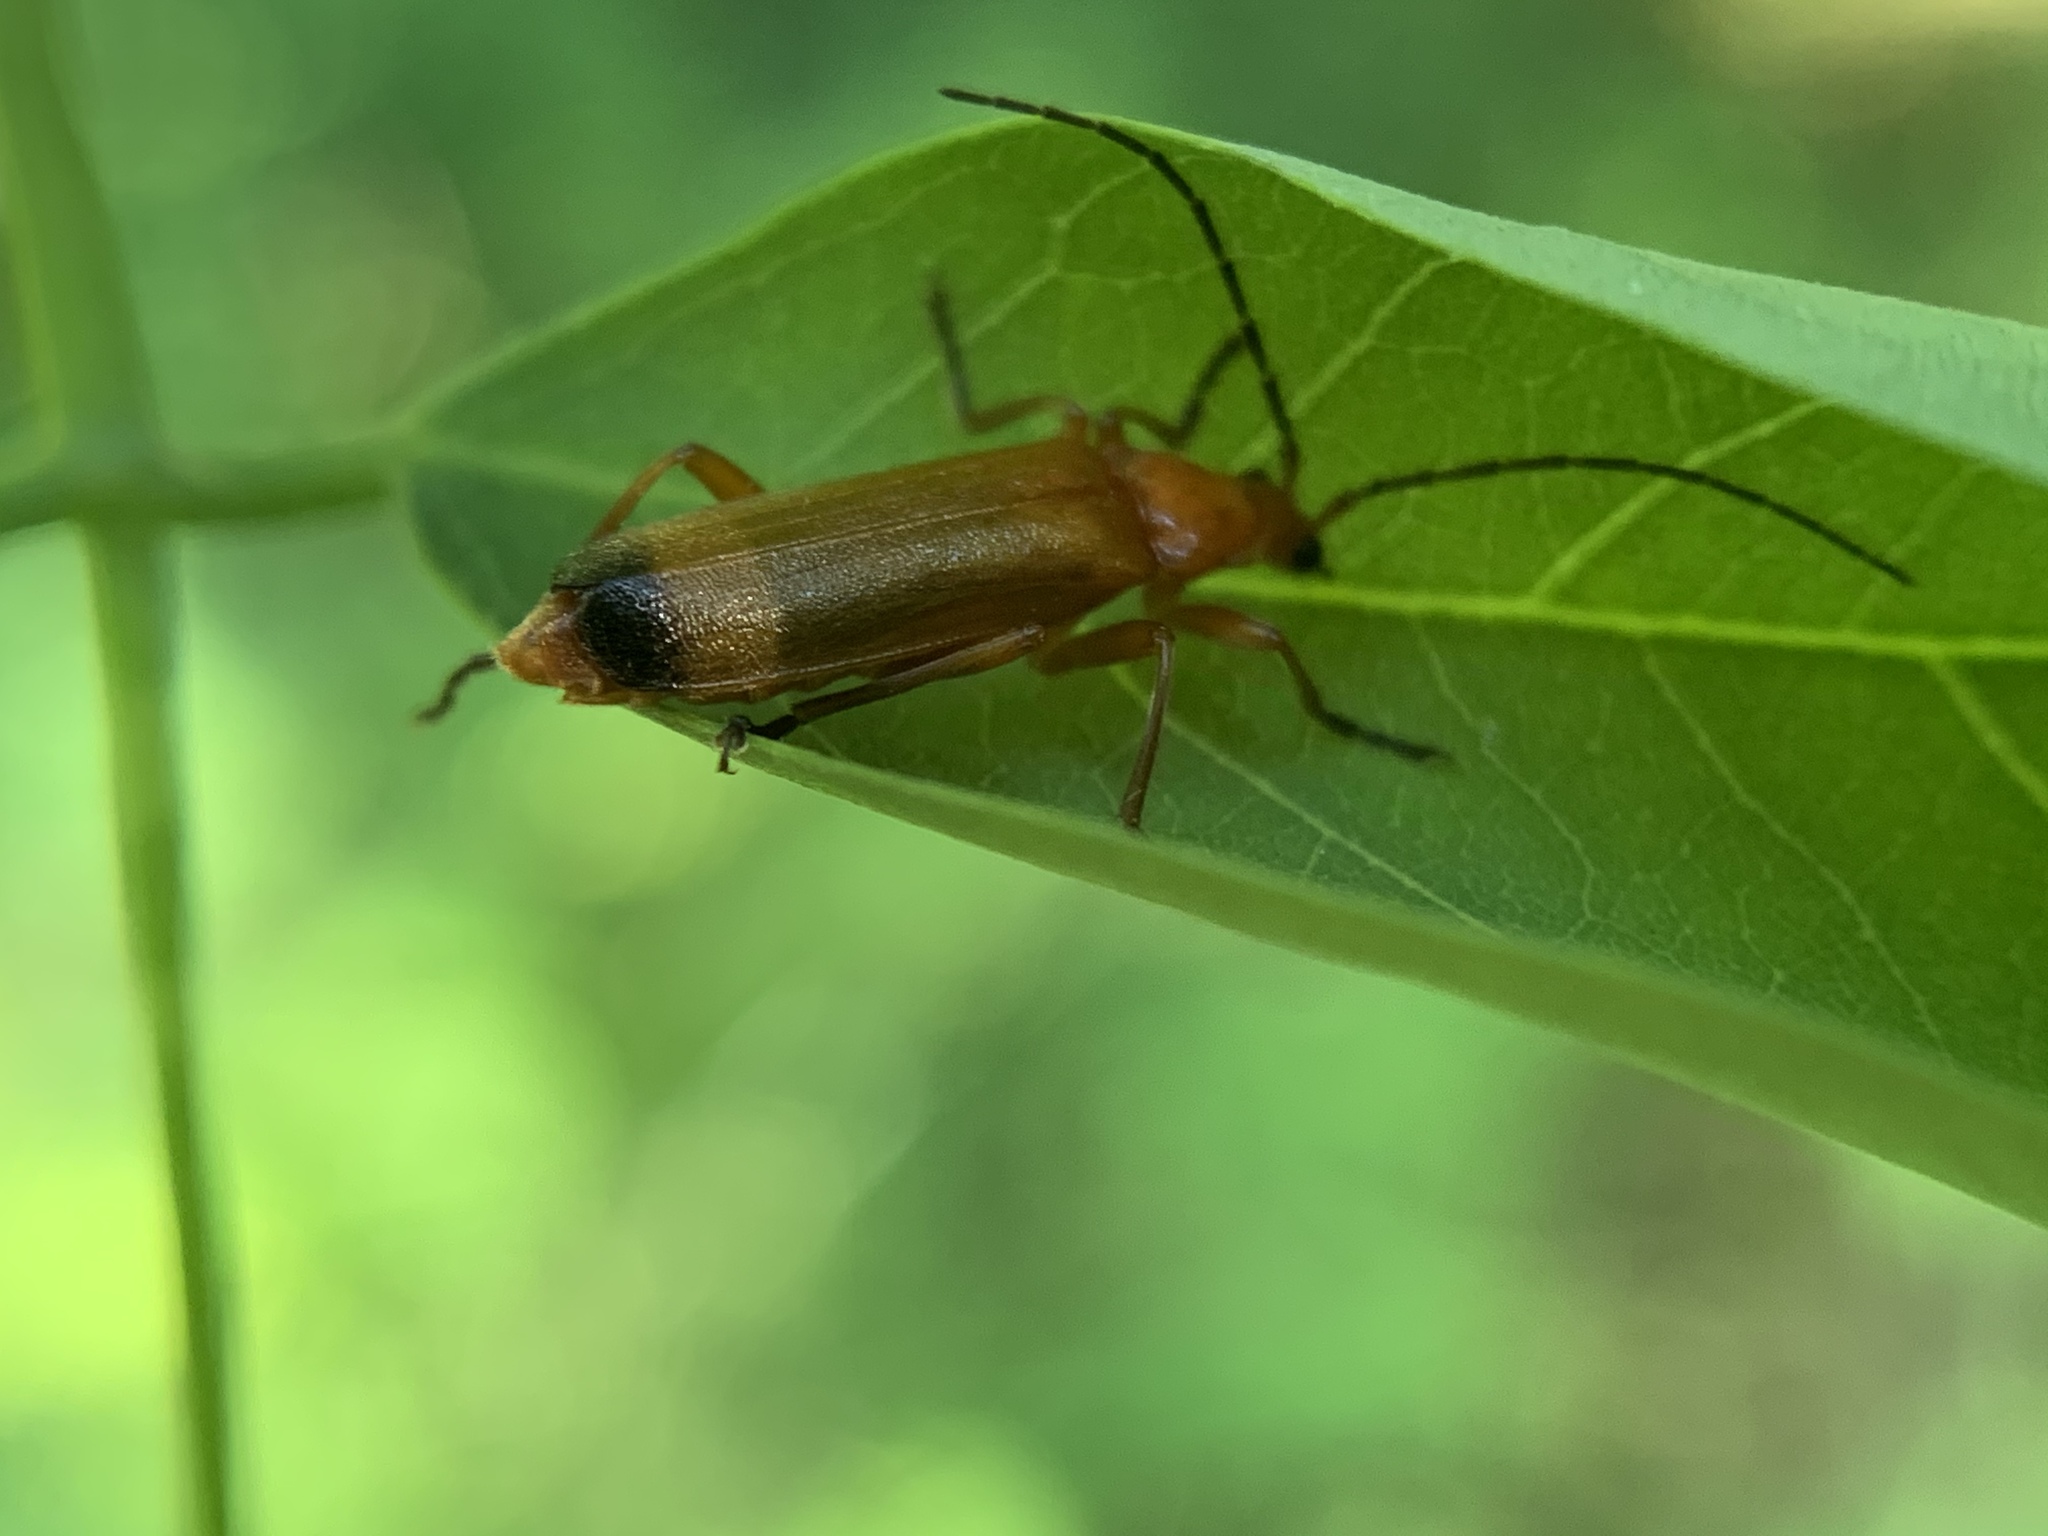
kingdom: Animalia
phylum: Arthropoda
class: Insecta
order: Coleoptera
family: Cantharidae
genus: Rhagonycha
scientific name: Rhagonycha fulva
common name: Common red soldier beetle
